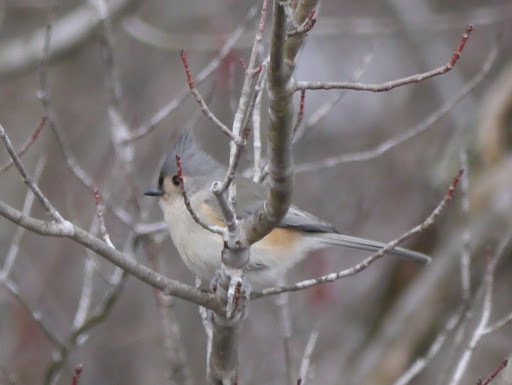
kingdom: Animalia
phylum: Chordata
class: Aves
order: Passeriformes
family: Paridae
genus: Baeolophus
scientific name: Baeolophus bicolor
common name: Tufted titmouse
